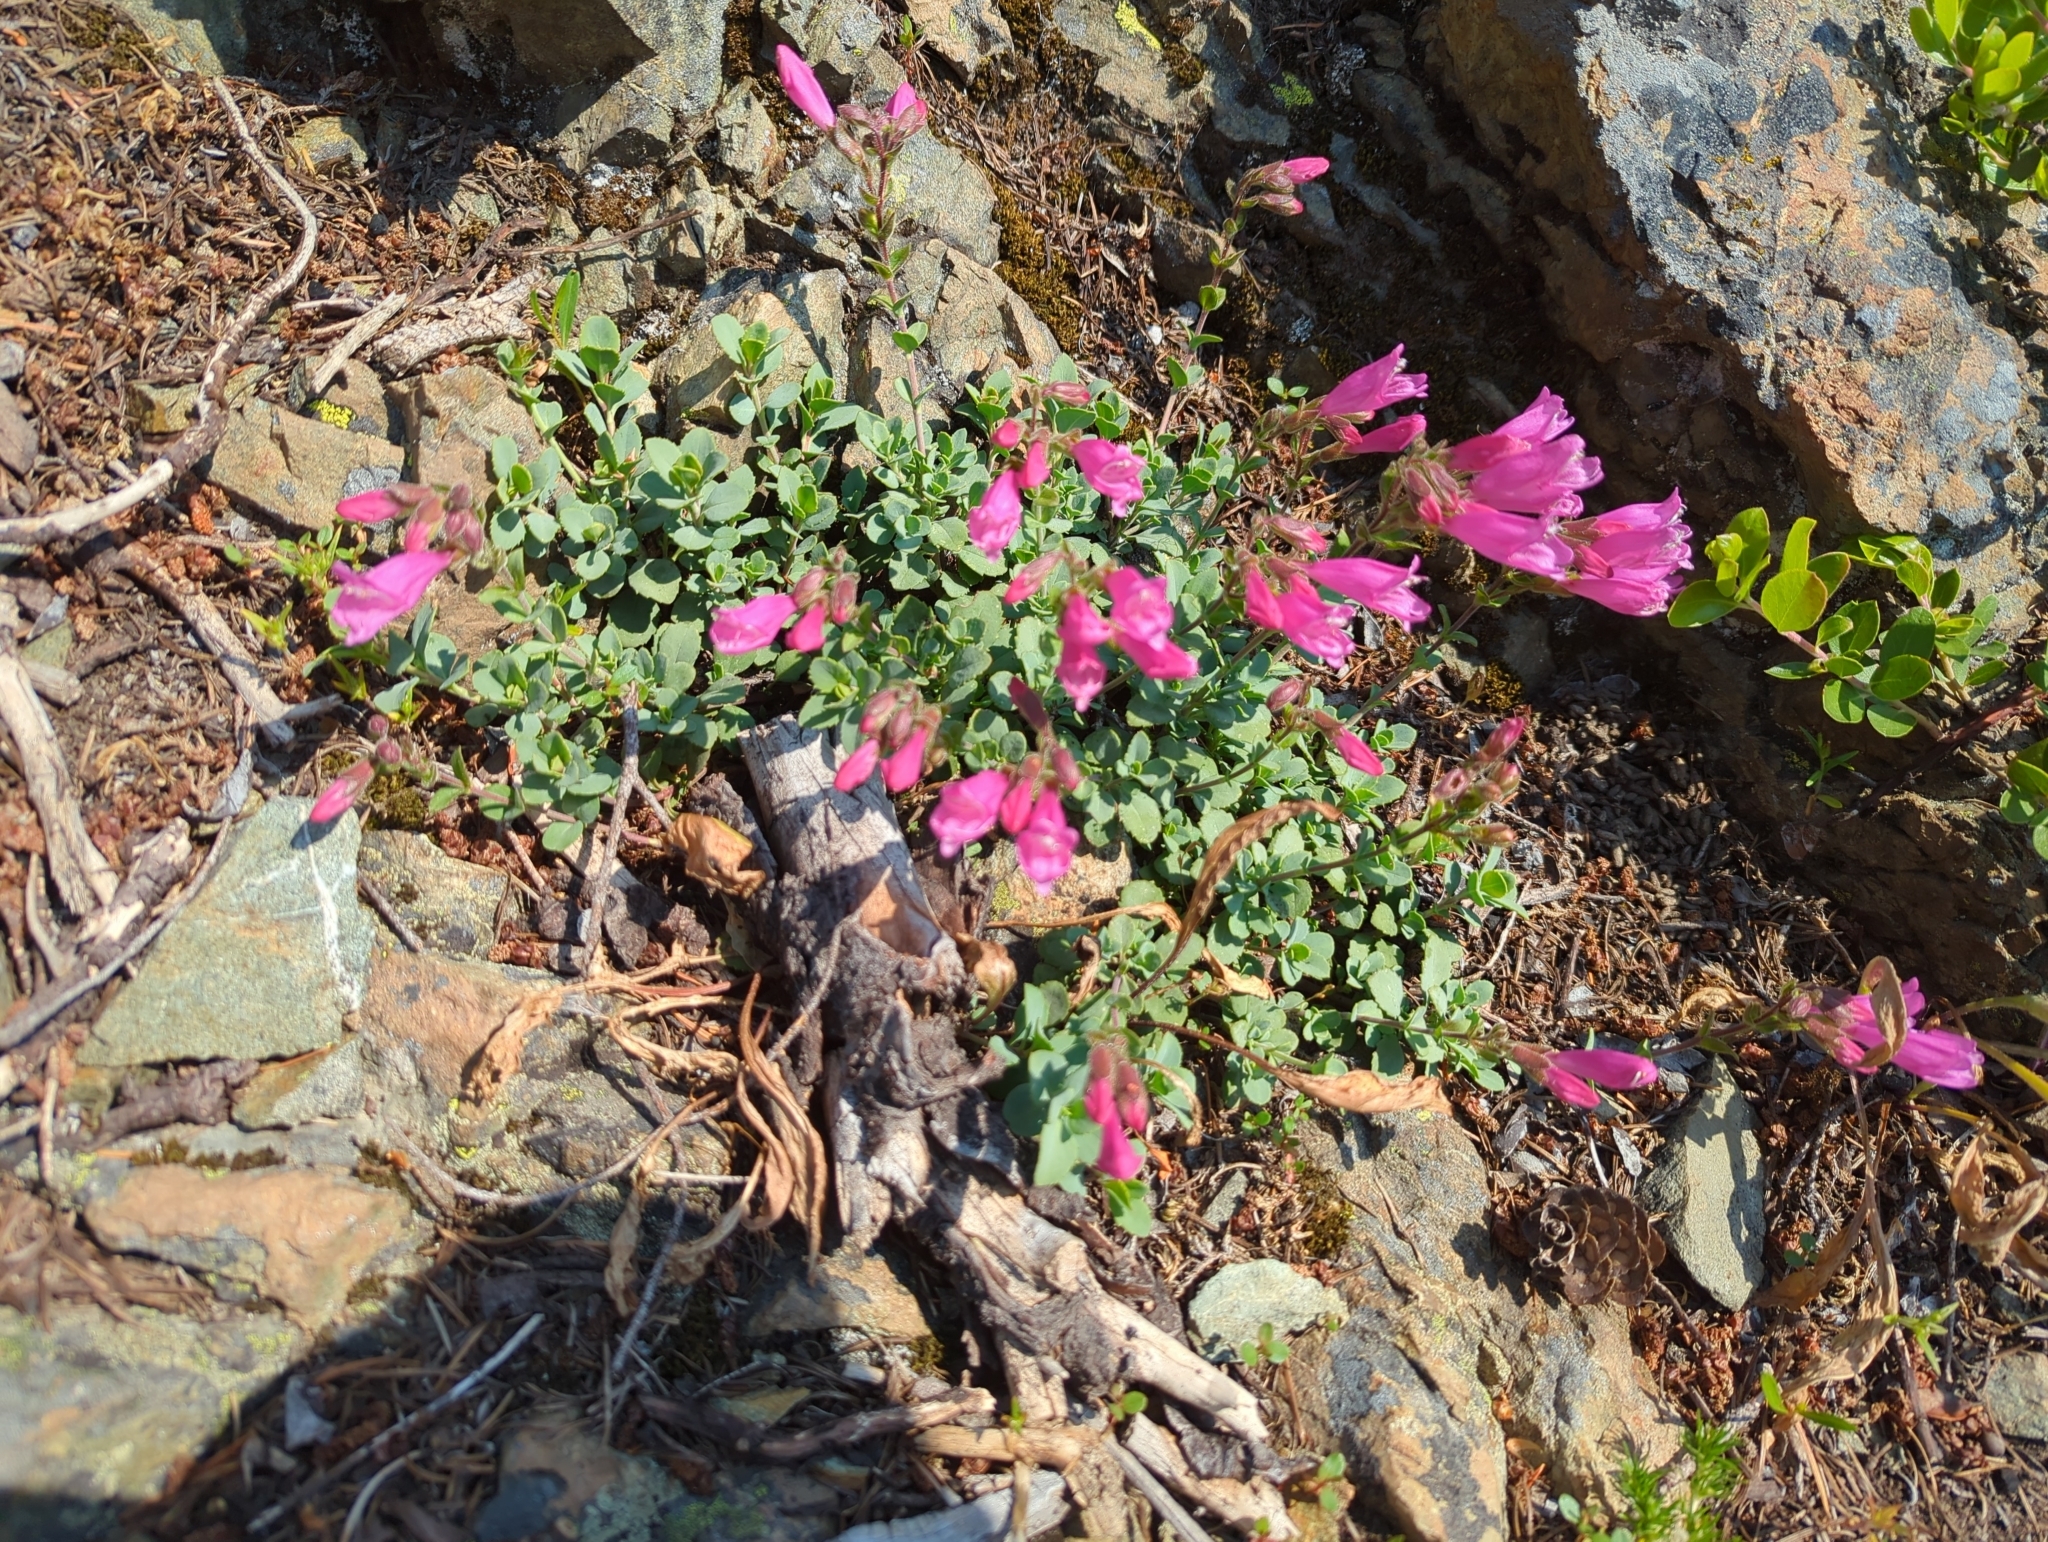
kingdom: Plantae
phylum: Tracheophyta
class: Magnoliopsida
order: Lamiales
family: Plantaginaceae
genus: Penstemon
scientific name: Penstemon rupicola
